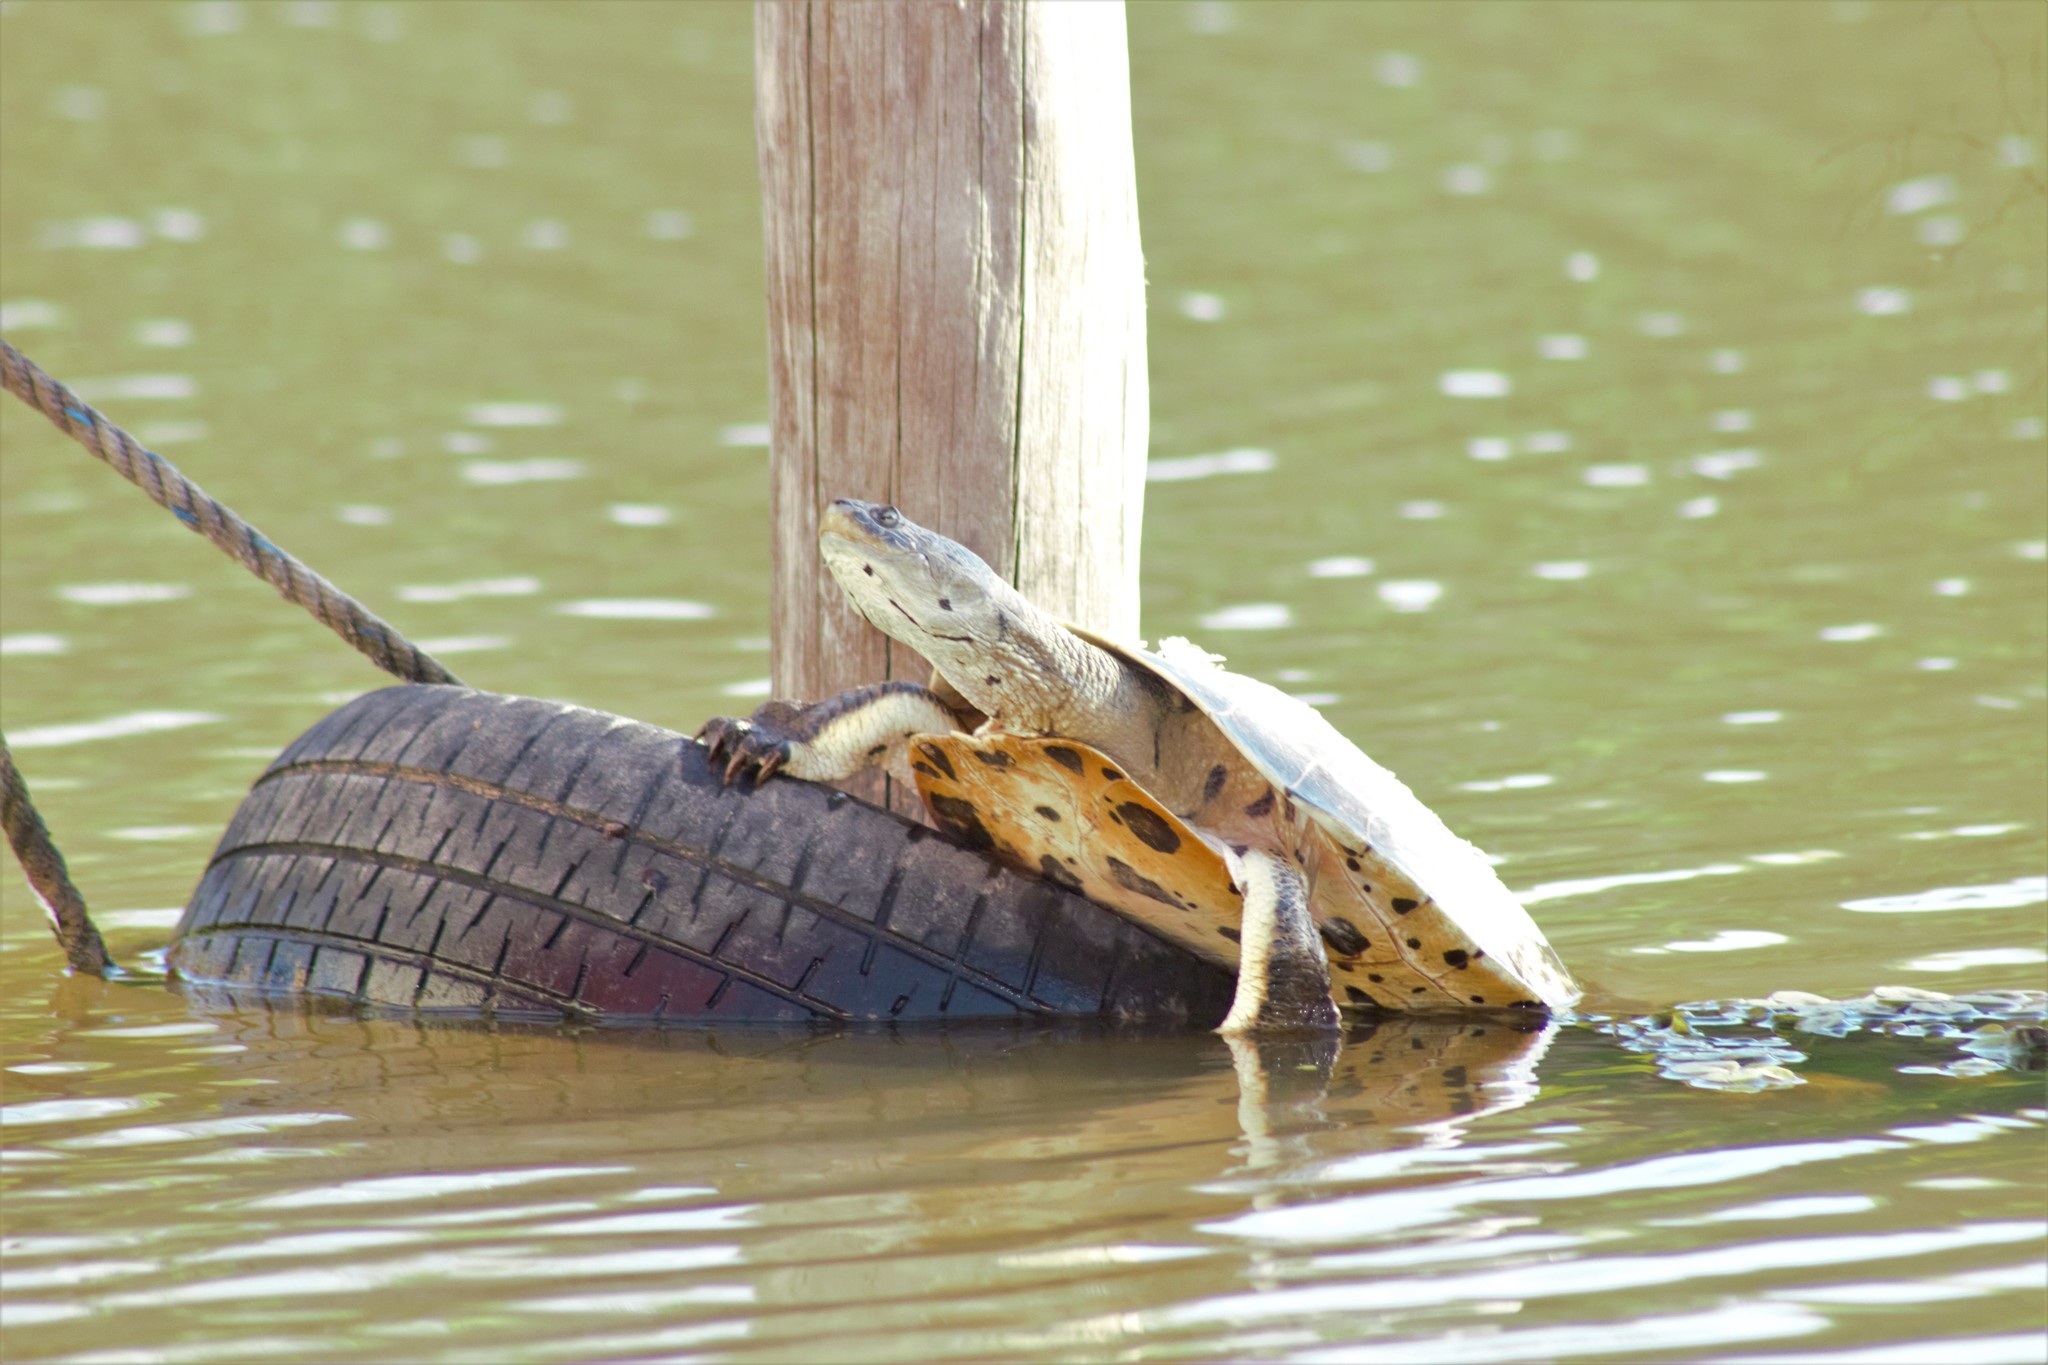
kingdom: Animalia
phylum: Chordata
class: Testudines
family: Chelidae
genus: Phrynops
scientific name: Phrynops hilarii
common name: Side-necked turtle of saint hillaire
